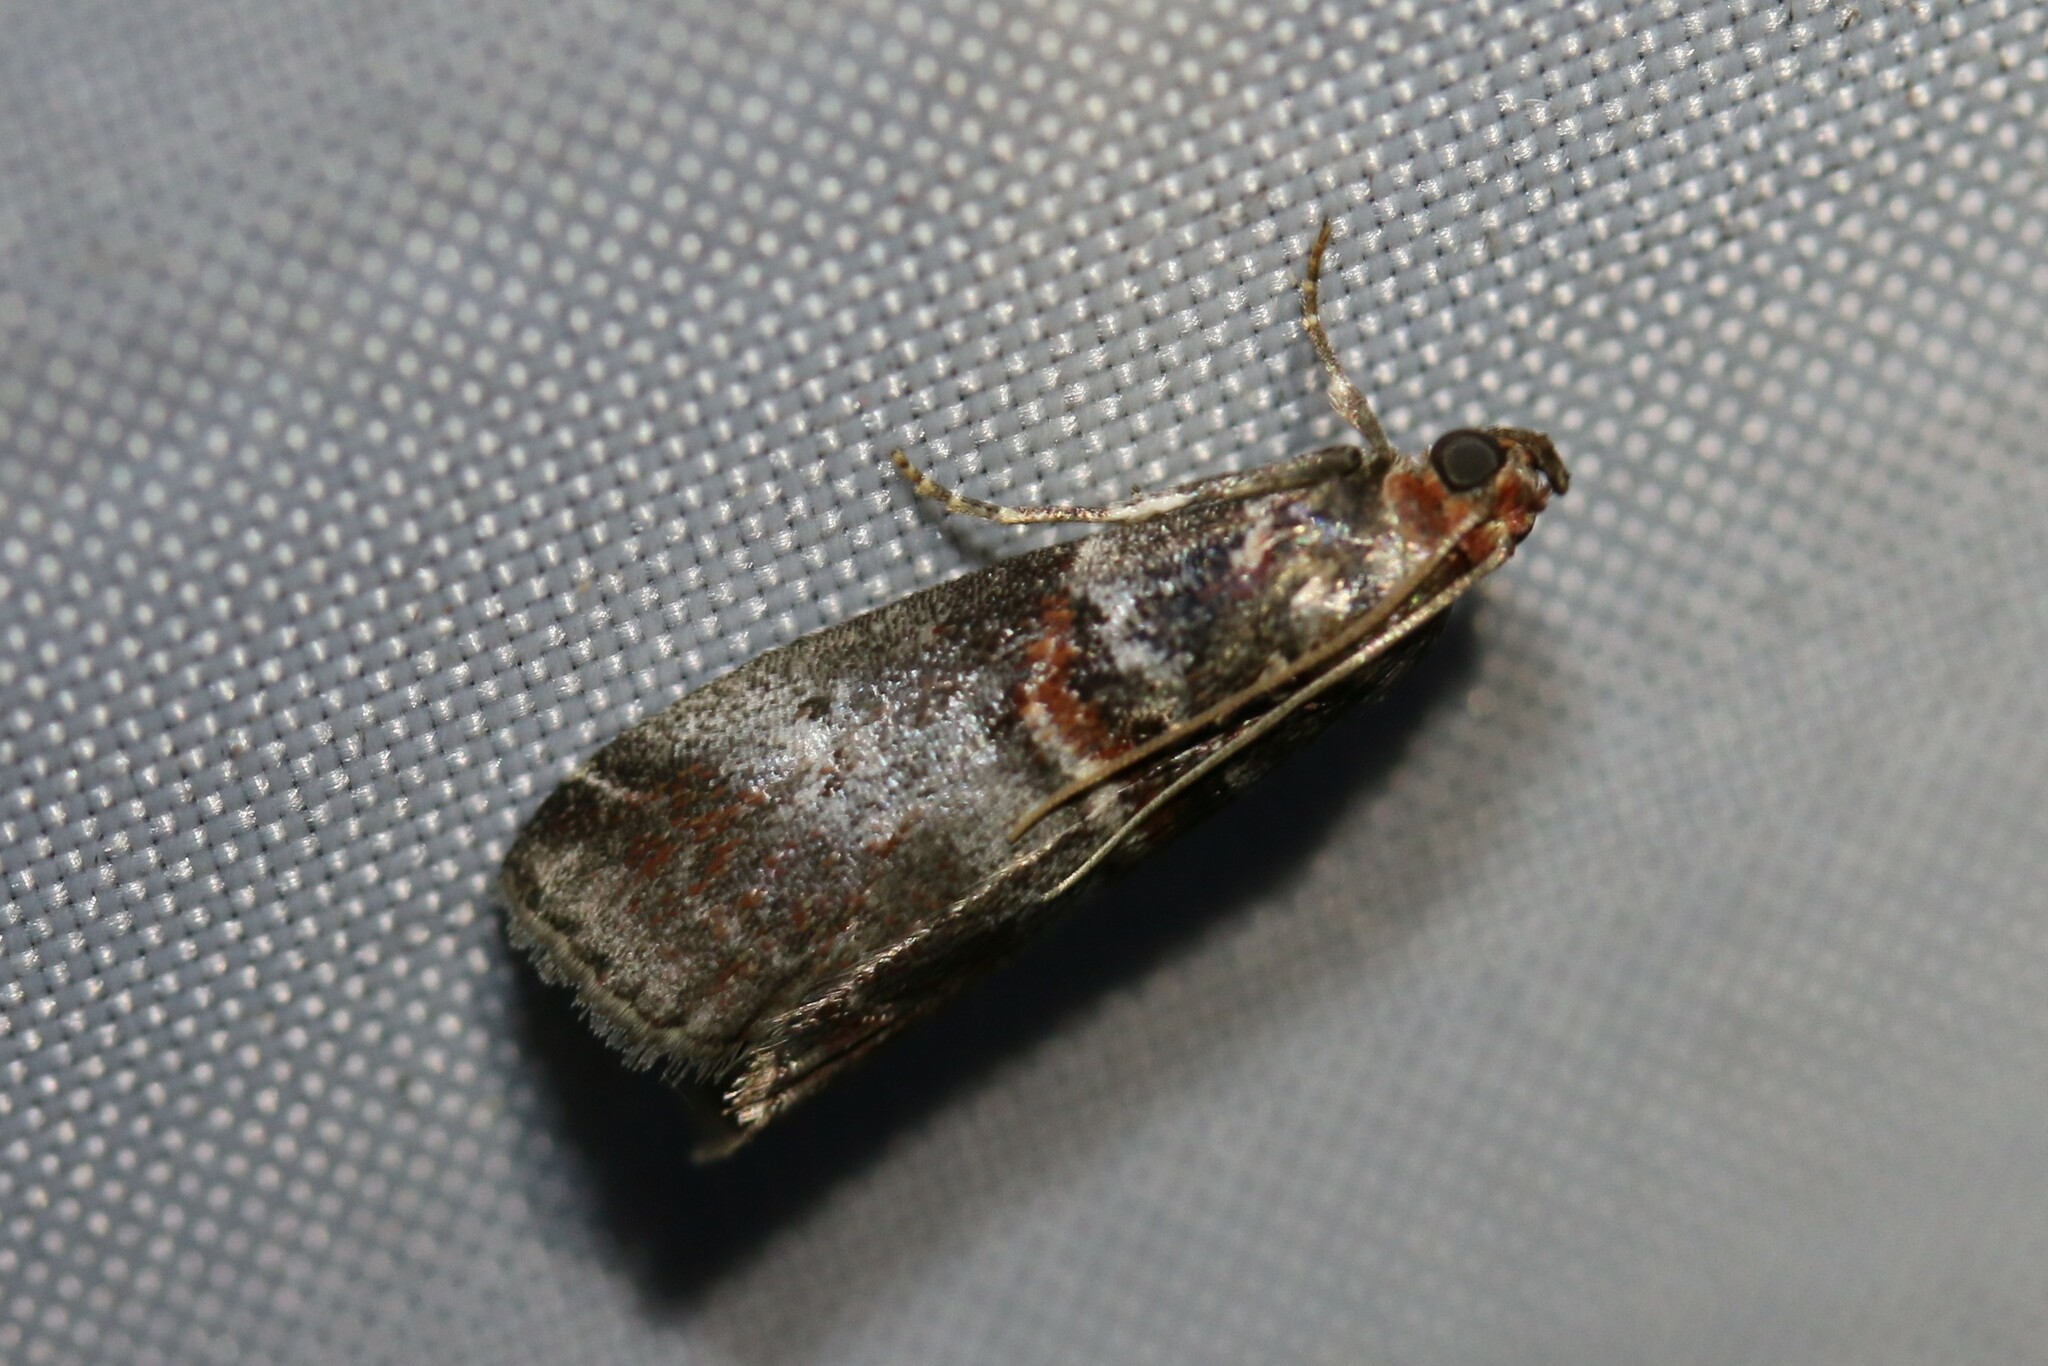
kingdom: Animalia
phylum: Arthropoda
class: Insecta
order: Lepidoptera
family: Pyralidae
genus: Acrobasis
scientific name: Acrobasis advenella
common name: Grey knot-horn
